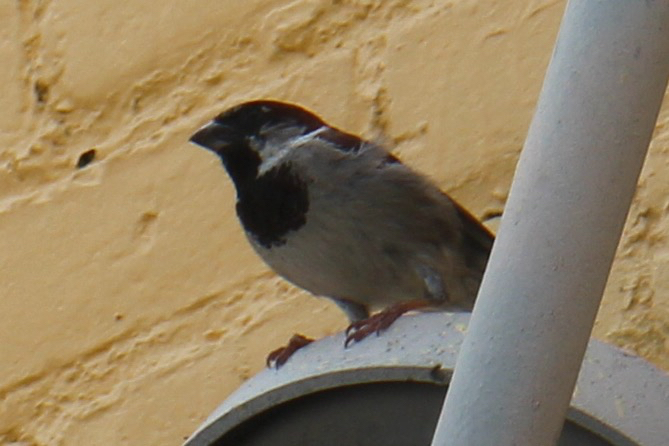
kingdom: Animalia
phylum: Chordata
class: Aves
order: Passeriformes
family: Passeridae
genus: Passer
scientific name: Passer domesticus
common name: House sparrow
